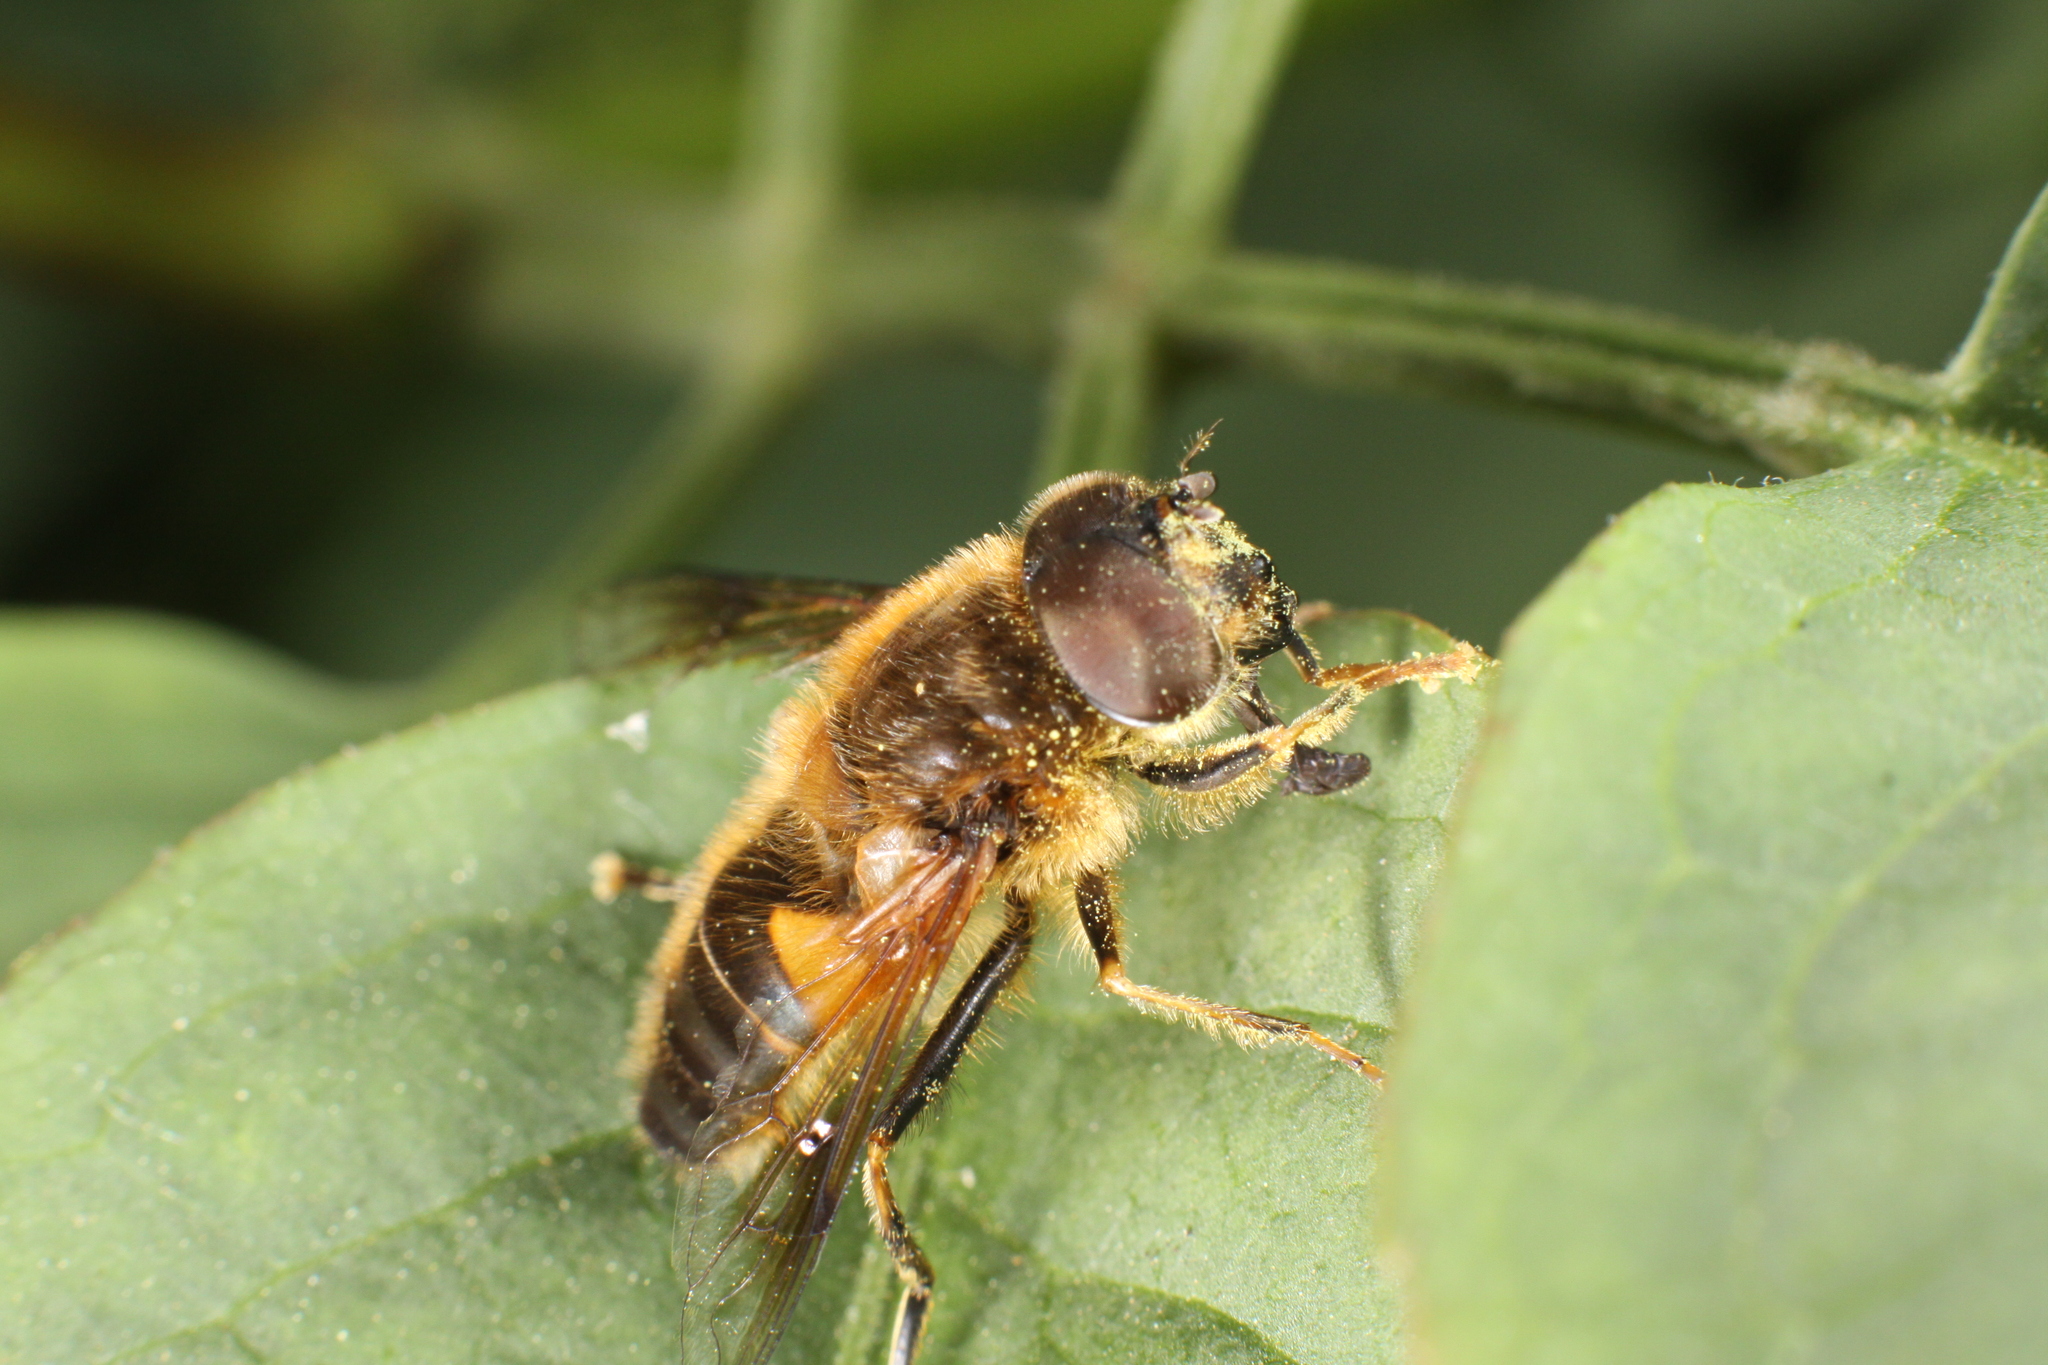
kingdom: Animalia
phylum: Arthropoda
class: Insecta
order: Diptera
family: Syrphidae
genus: Eristalis
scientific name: Eristalis pertinax
